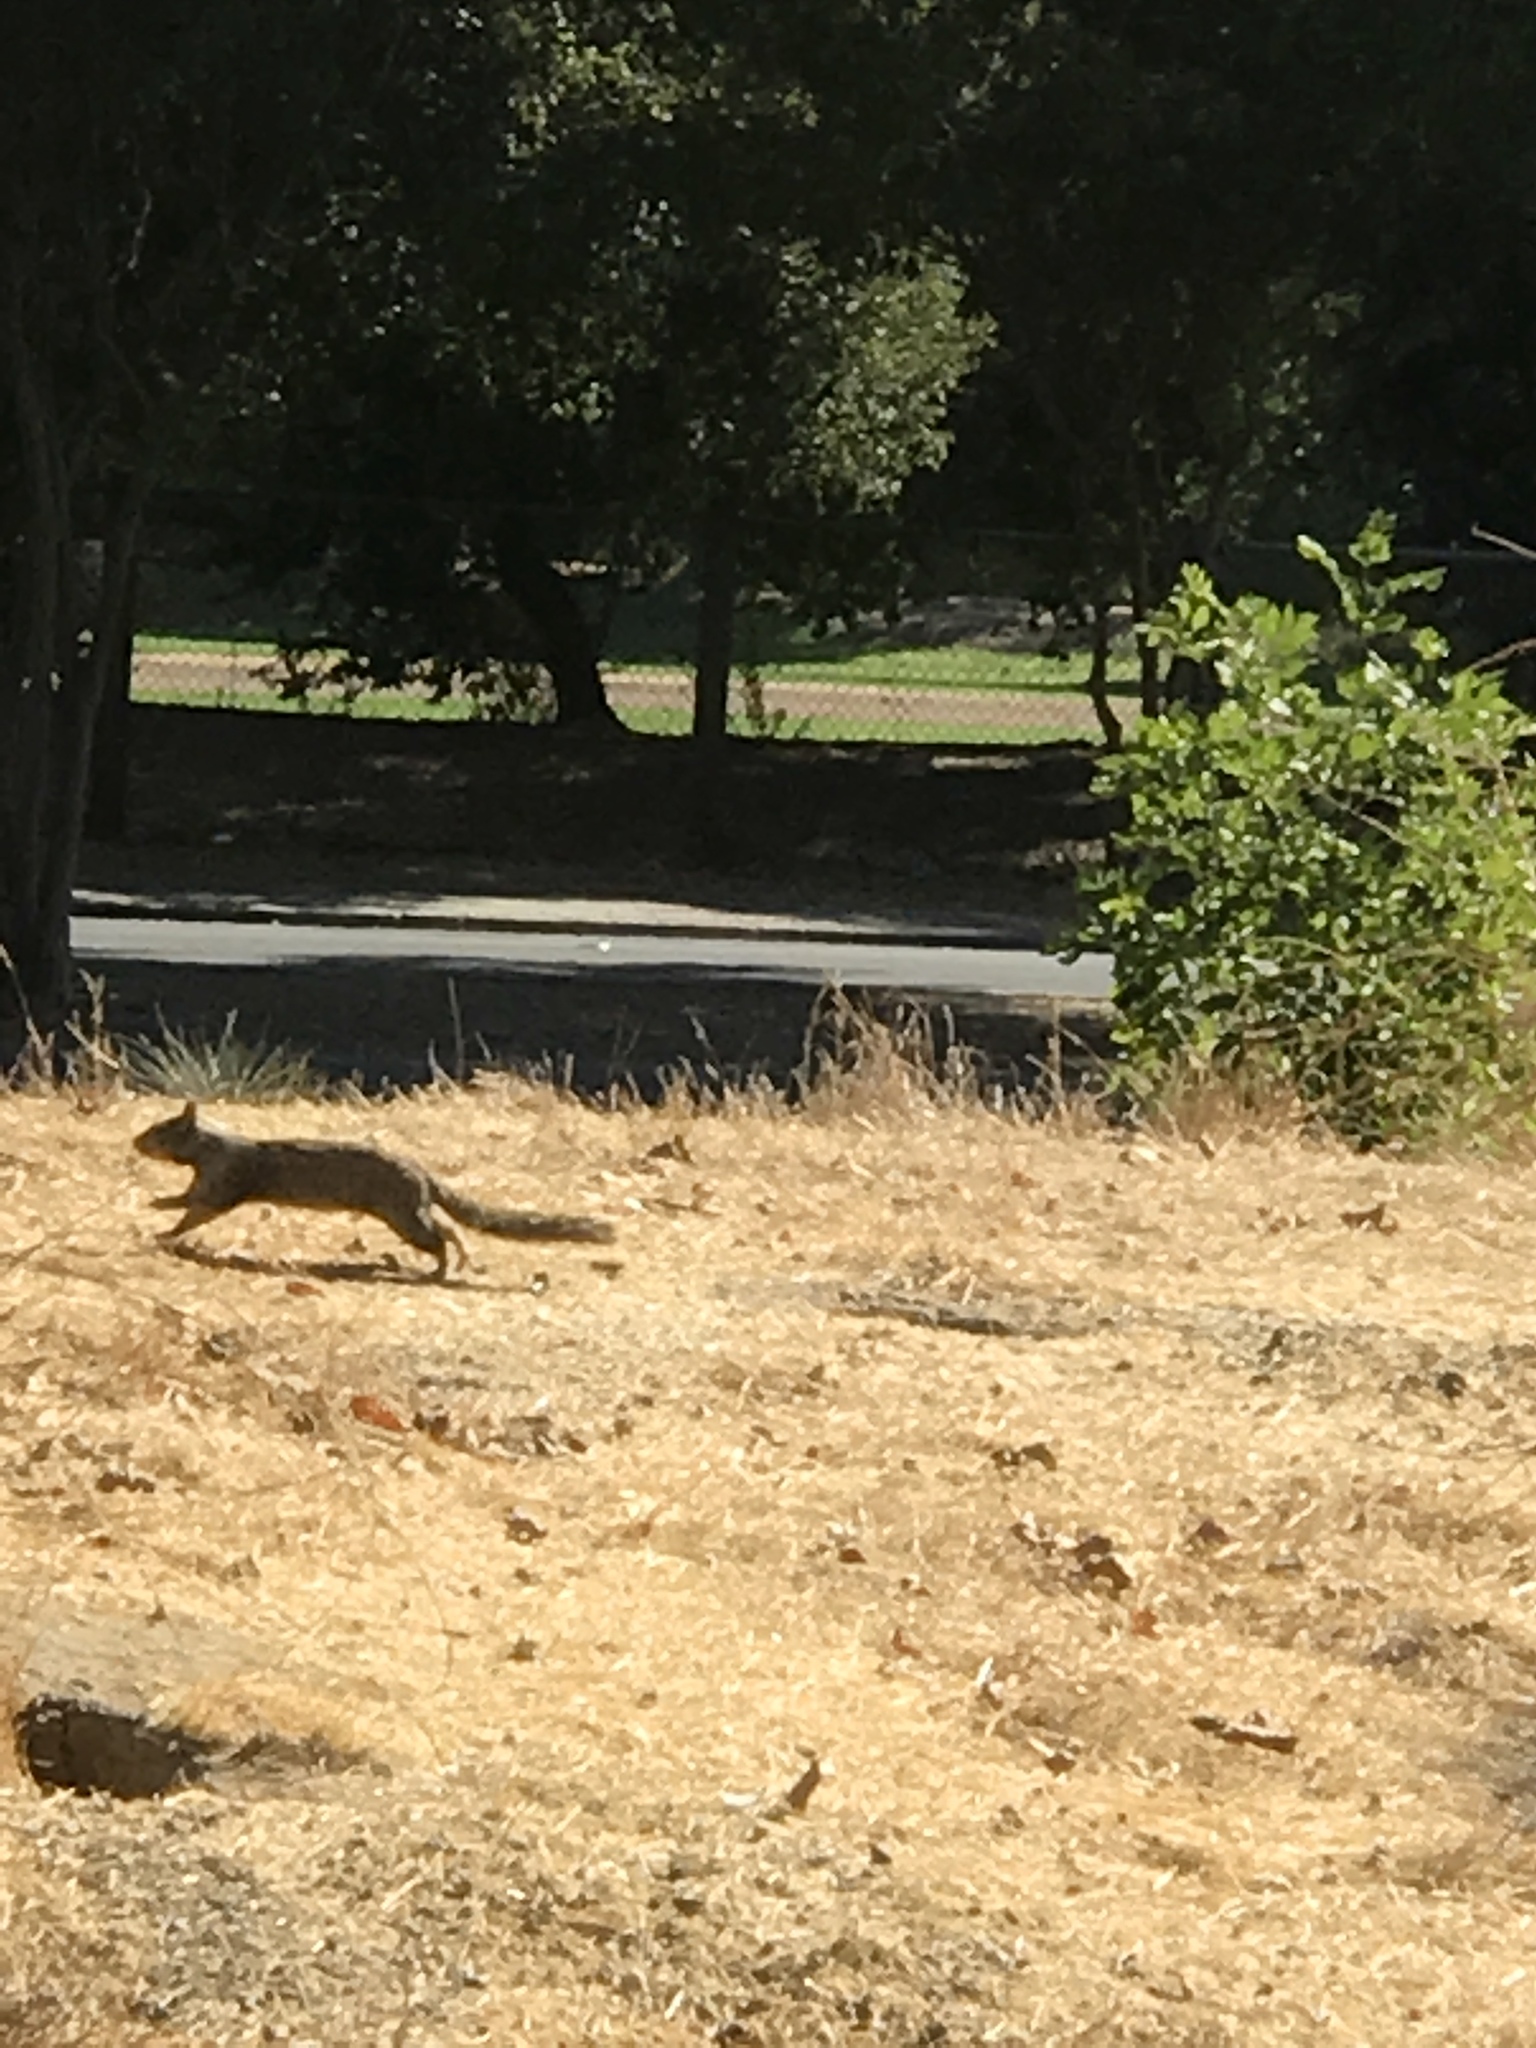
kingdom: Animalia
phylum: Chordata
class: Mammalia
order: Rodentia
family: Sciuridae
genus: Otospermophilus
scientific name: Otospermophilus beecheyi
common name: California ground squirrel
